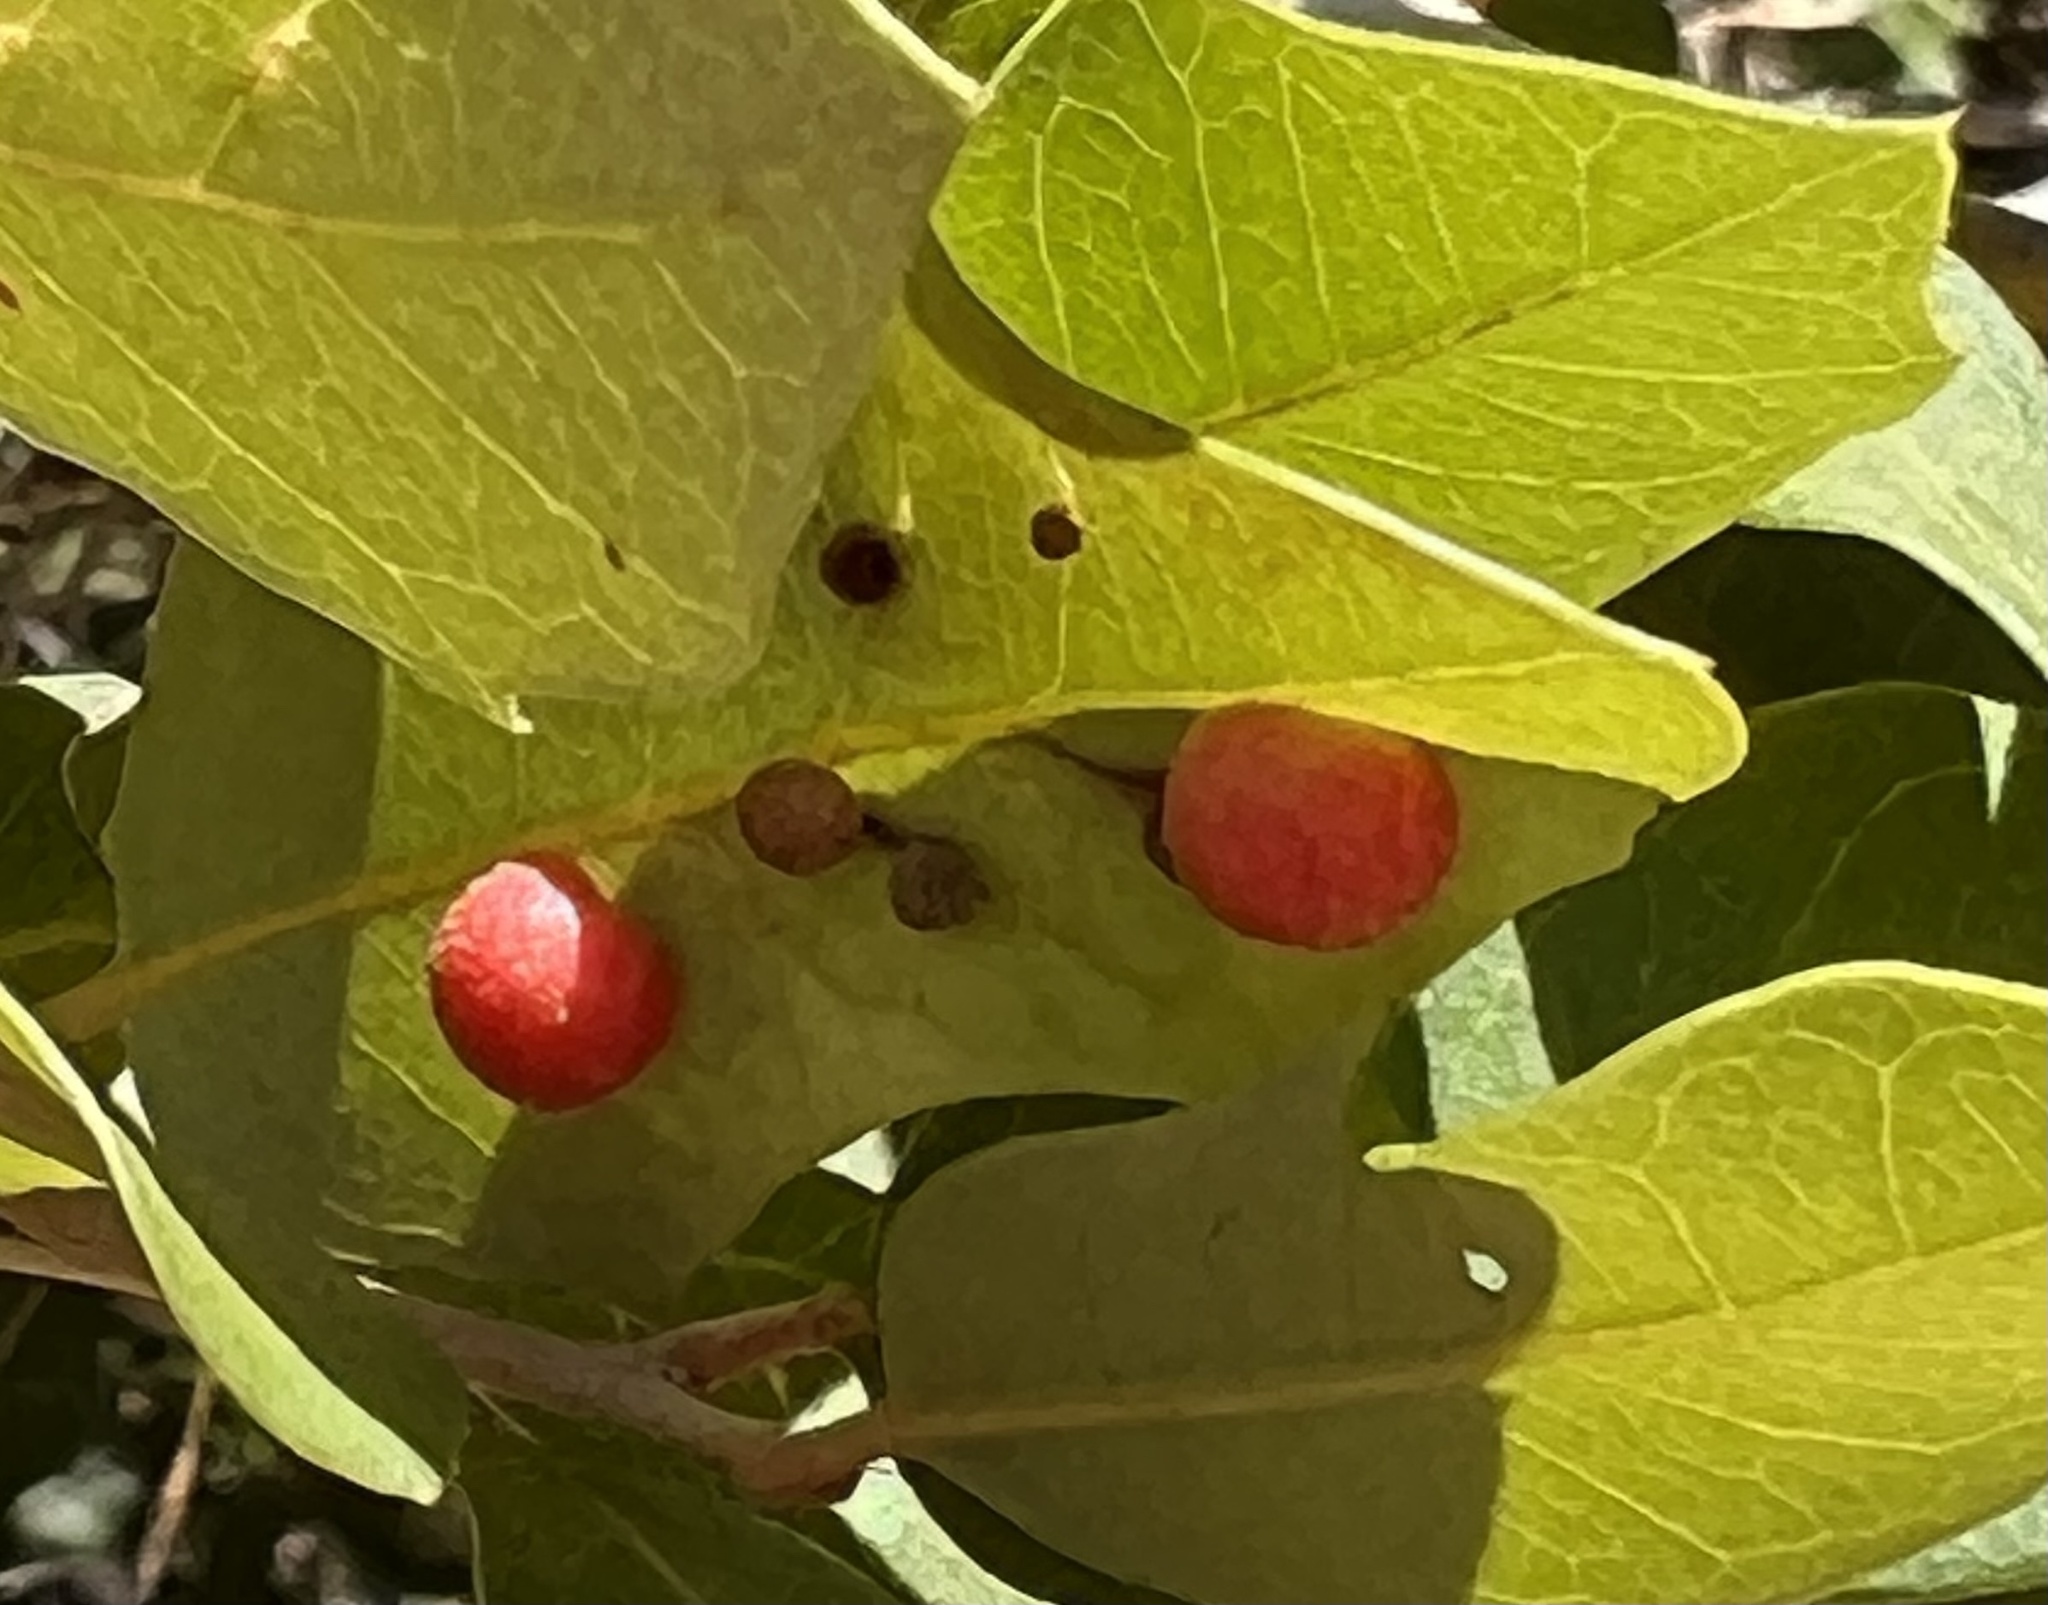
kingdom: Animalia
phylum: Arthropoda
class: Insecta
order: Hymenoptera
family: Cynipidae
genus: Belonocnema
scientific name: Belonocnema kinseyi
